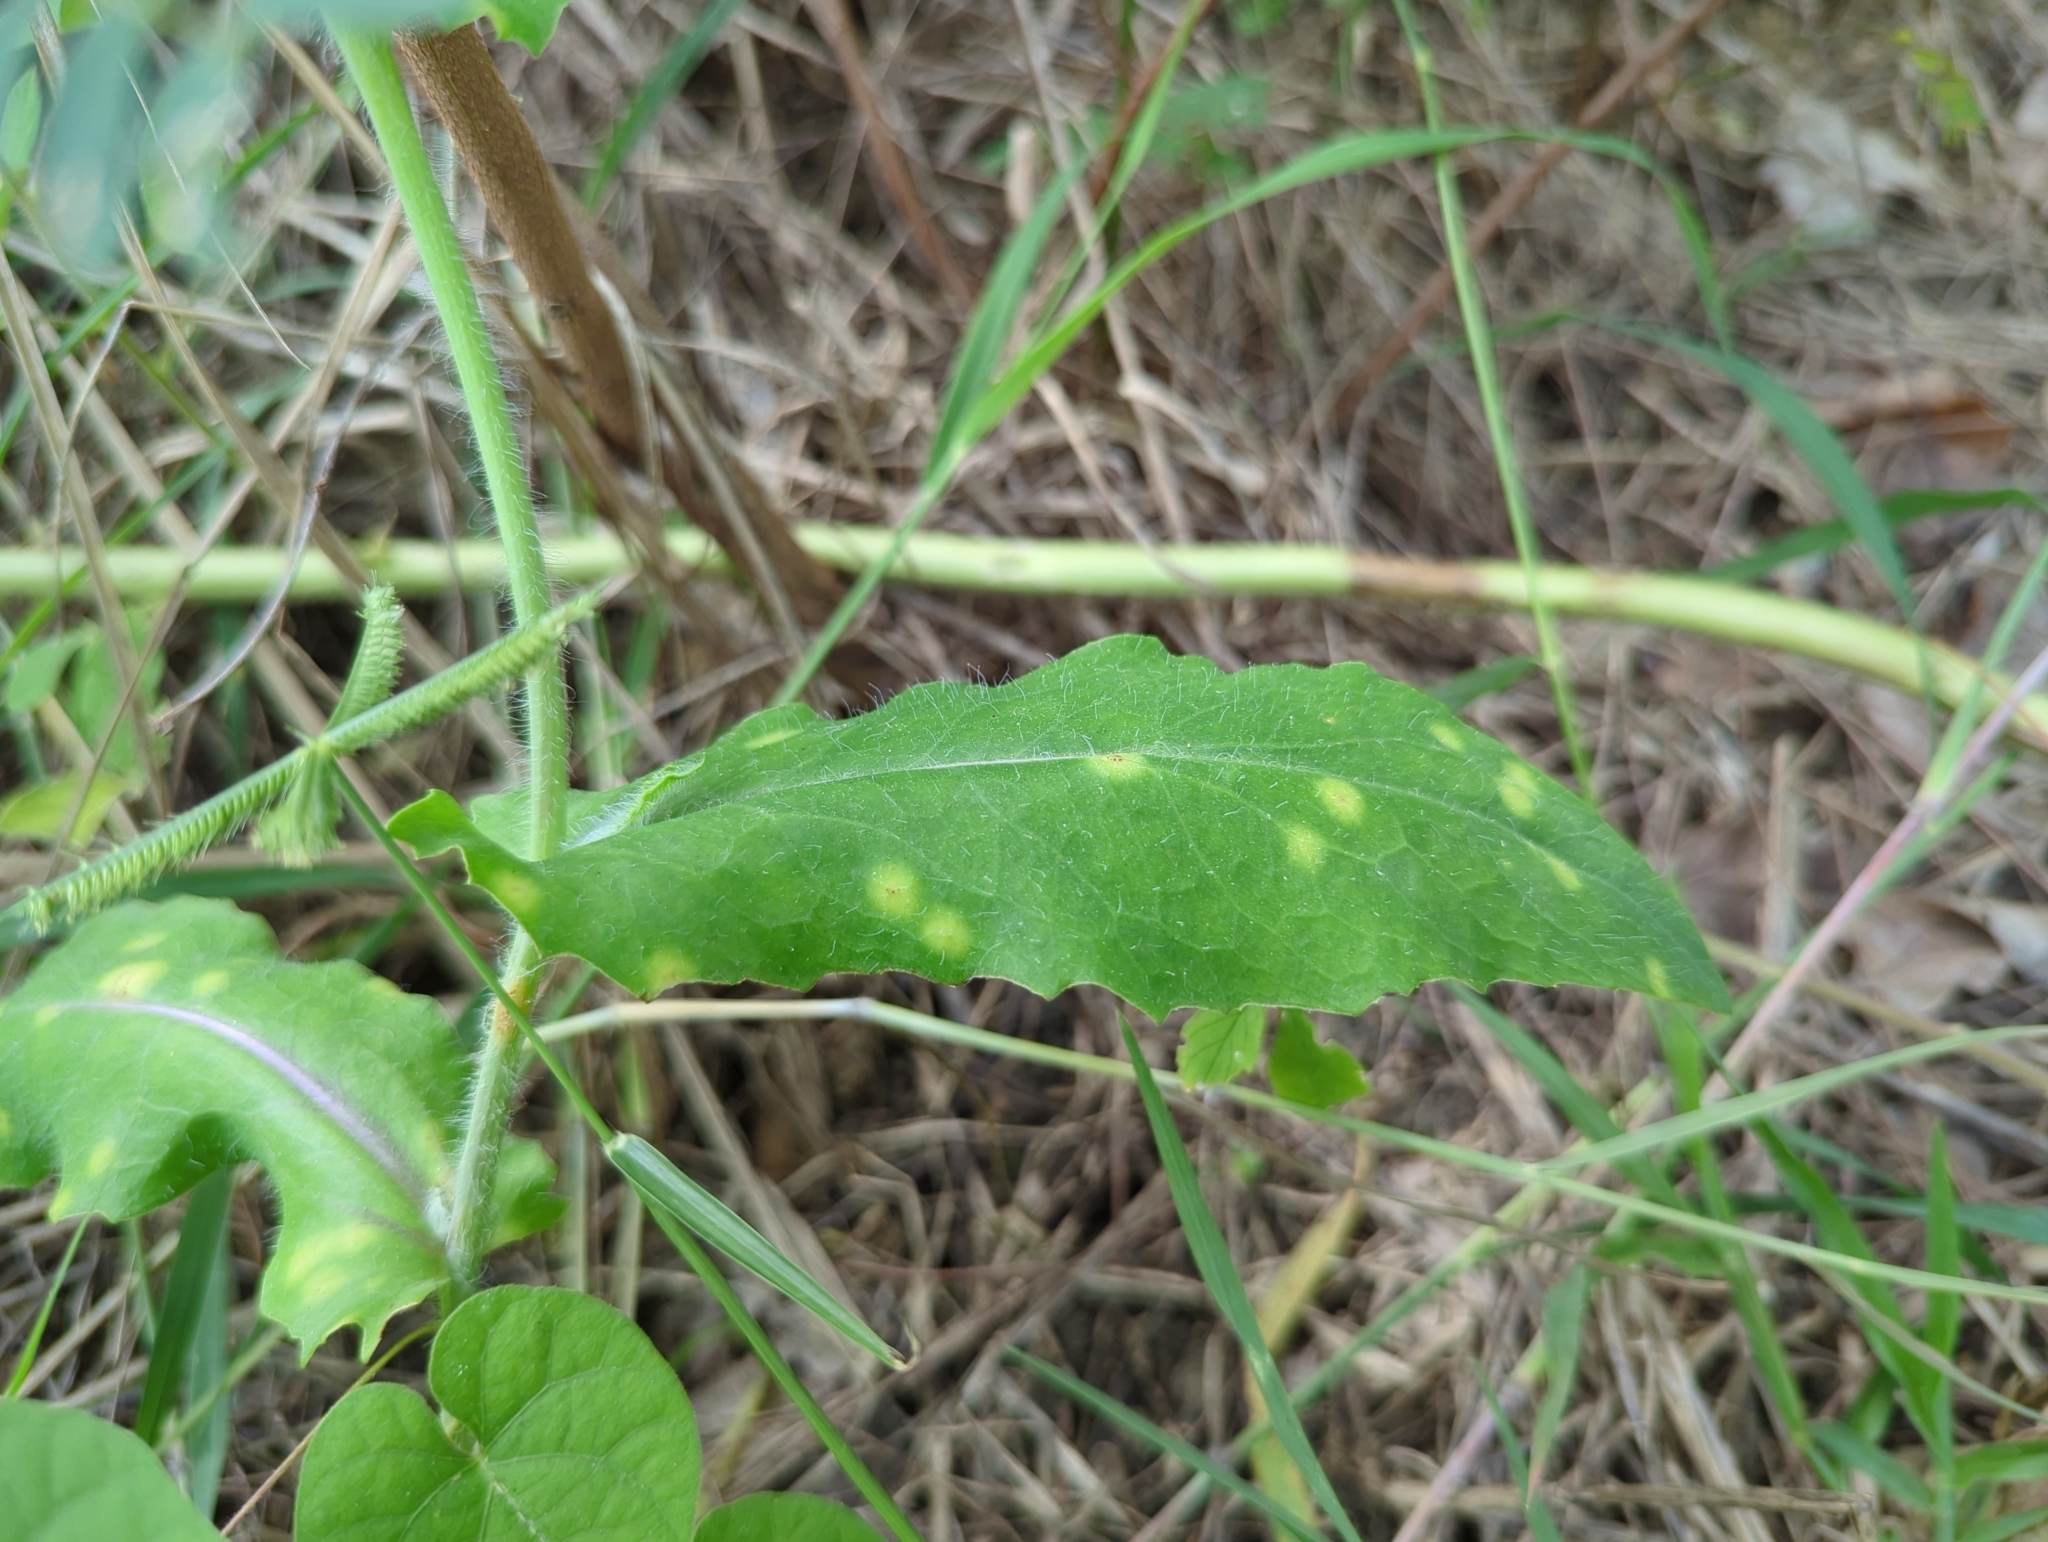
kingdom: Plantae
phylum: Tracheophyta
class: Magnoliopsida
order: Asterales
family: Asteraceae
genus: Emilia
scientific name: Emilia fosbergii
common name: Florida tasselflower
